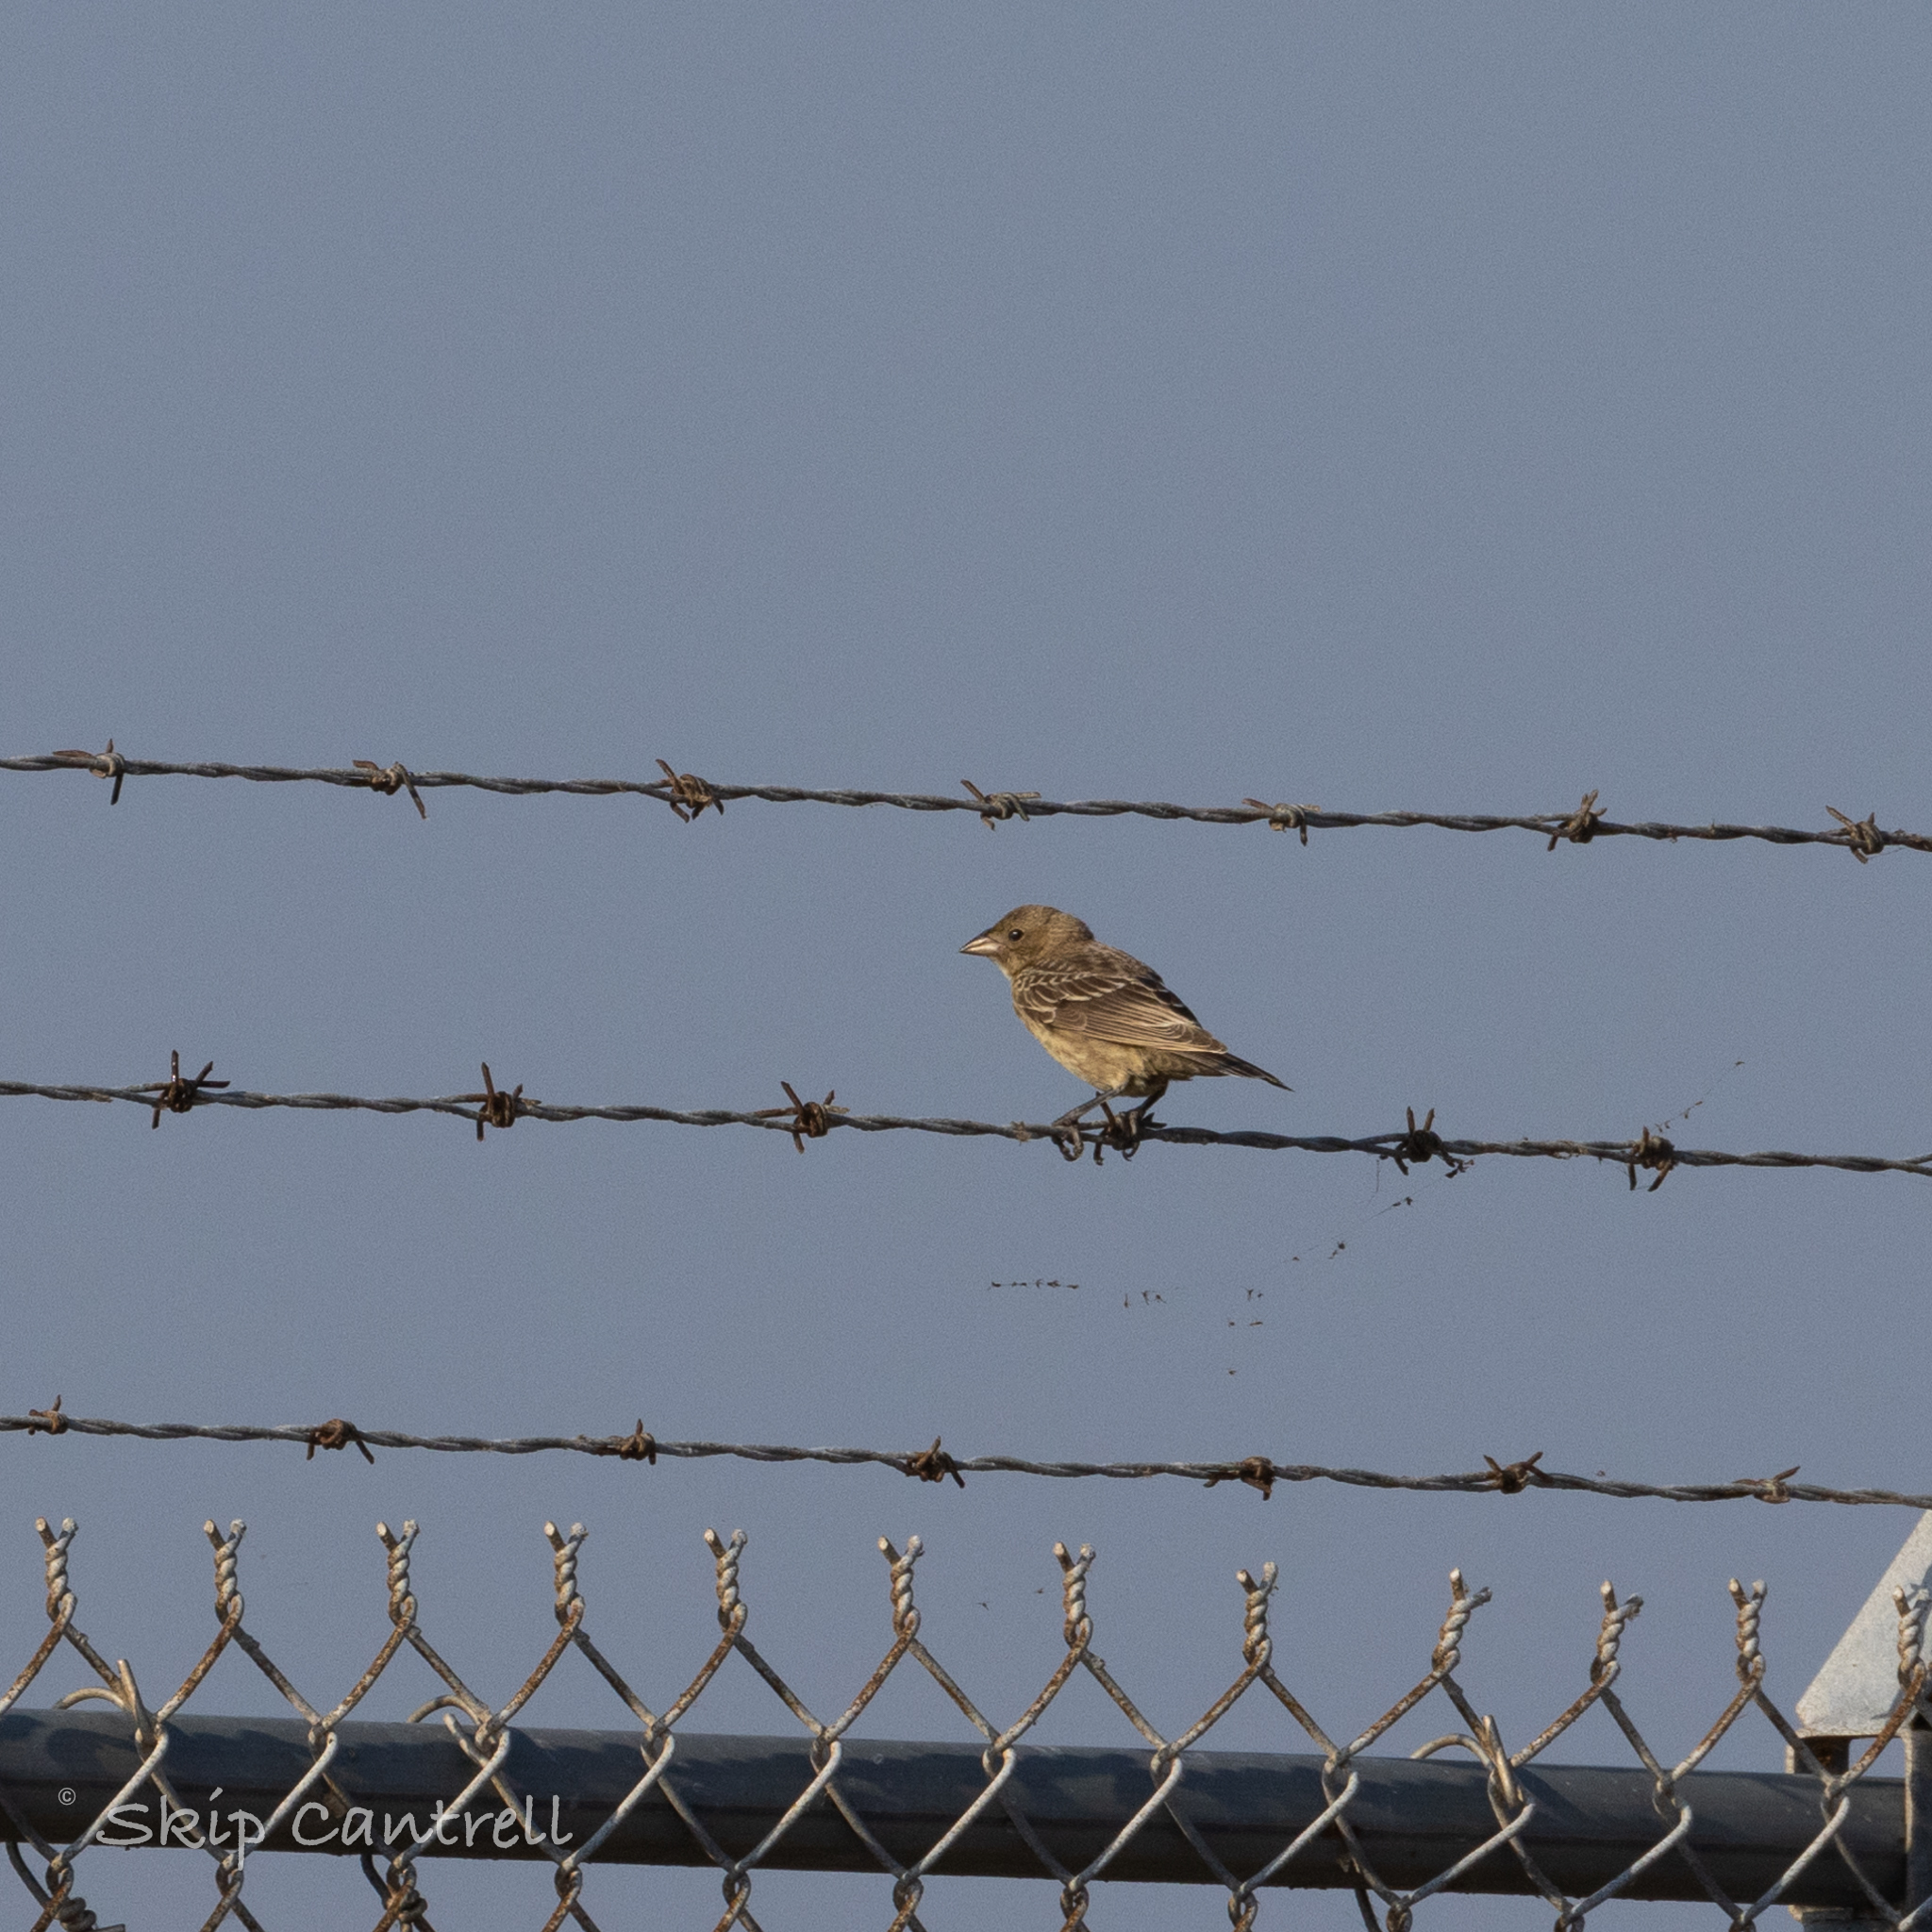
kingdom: Animalia
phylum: Chordata
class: Aves
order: Passeriformes
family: Alaudidae
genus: Eremophila
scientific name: Eremophila alpestris
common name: Horned lark
